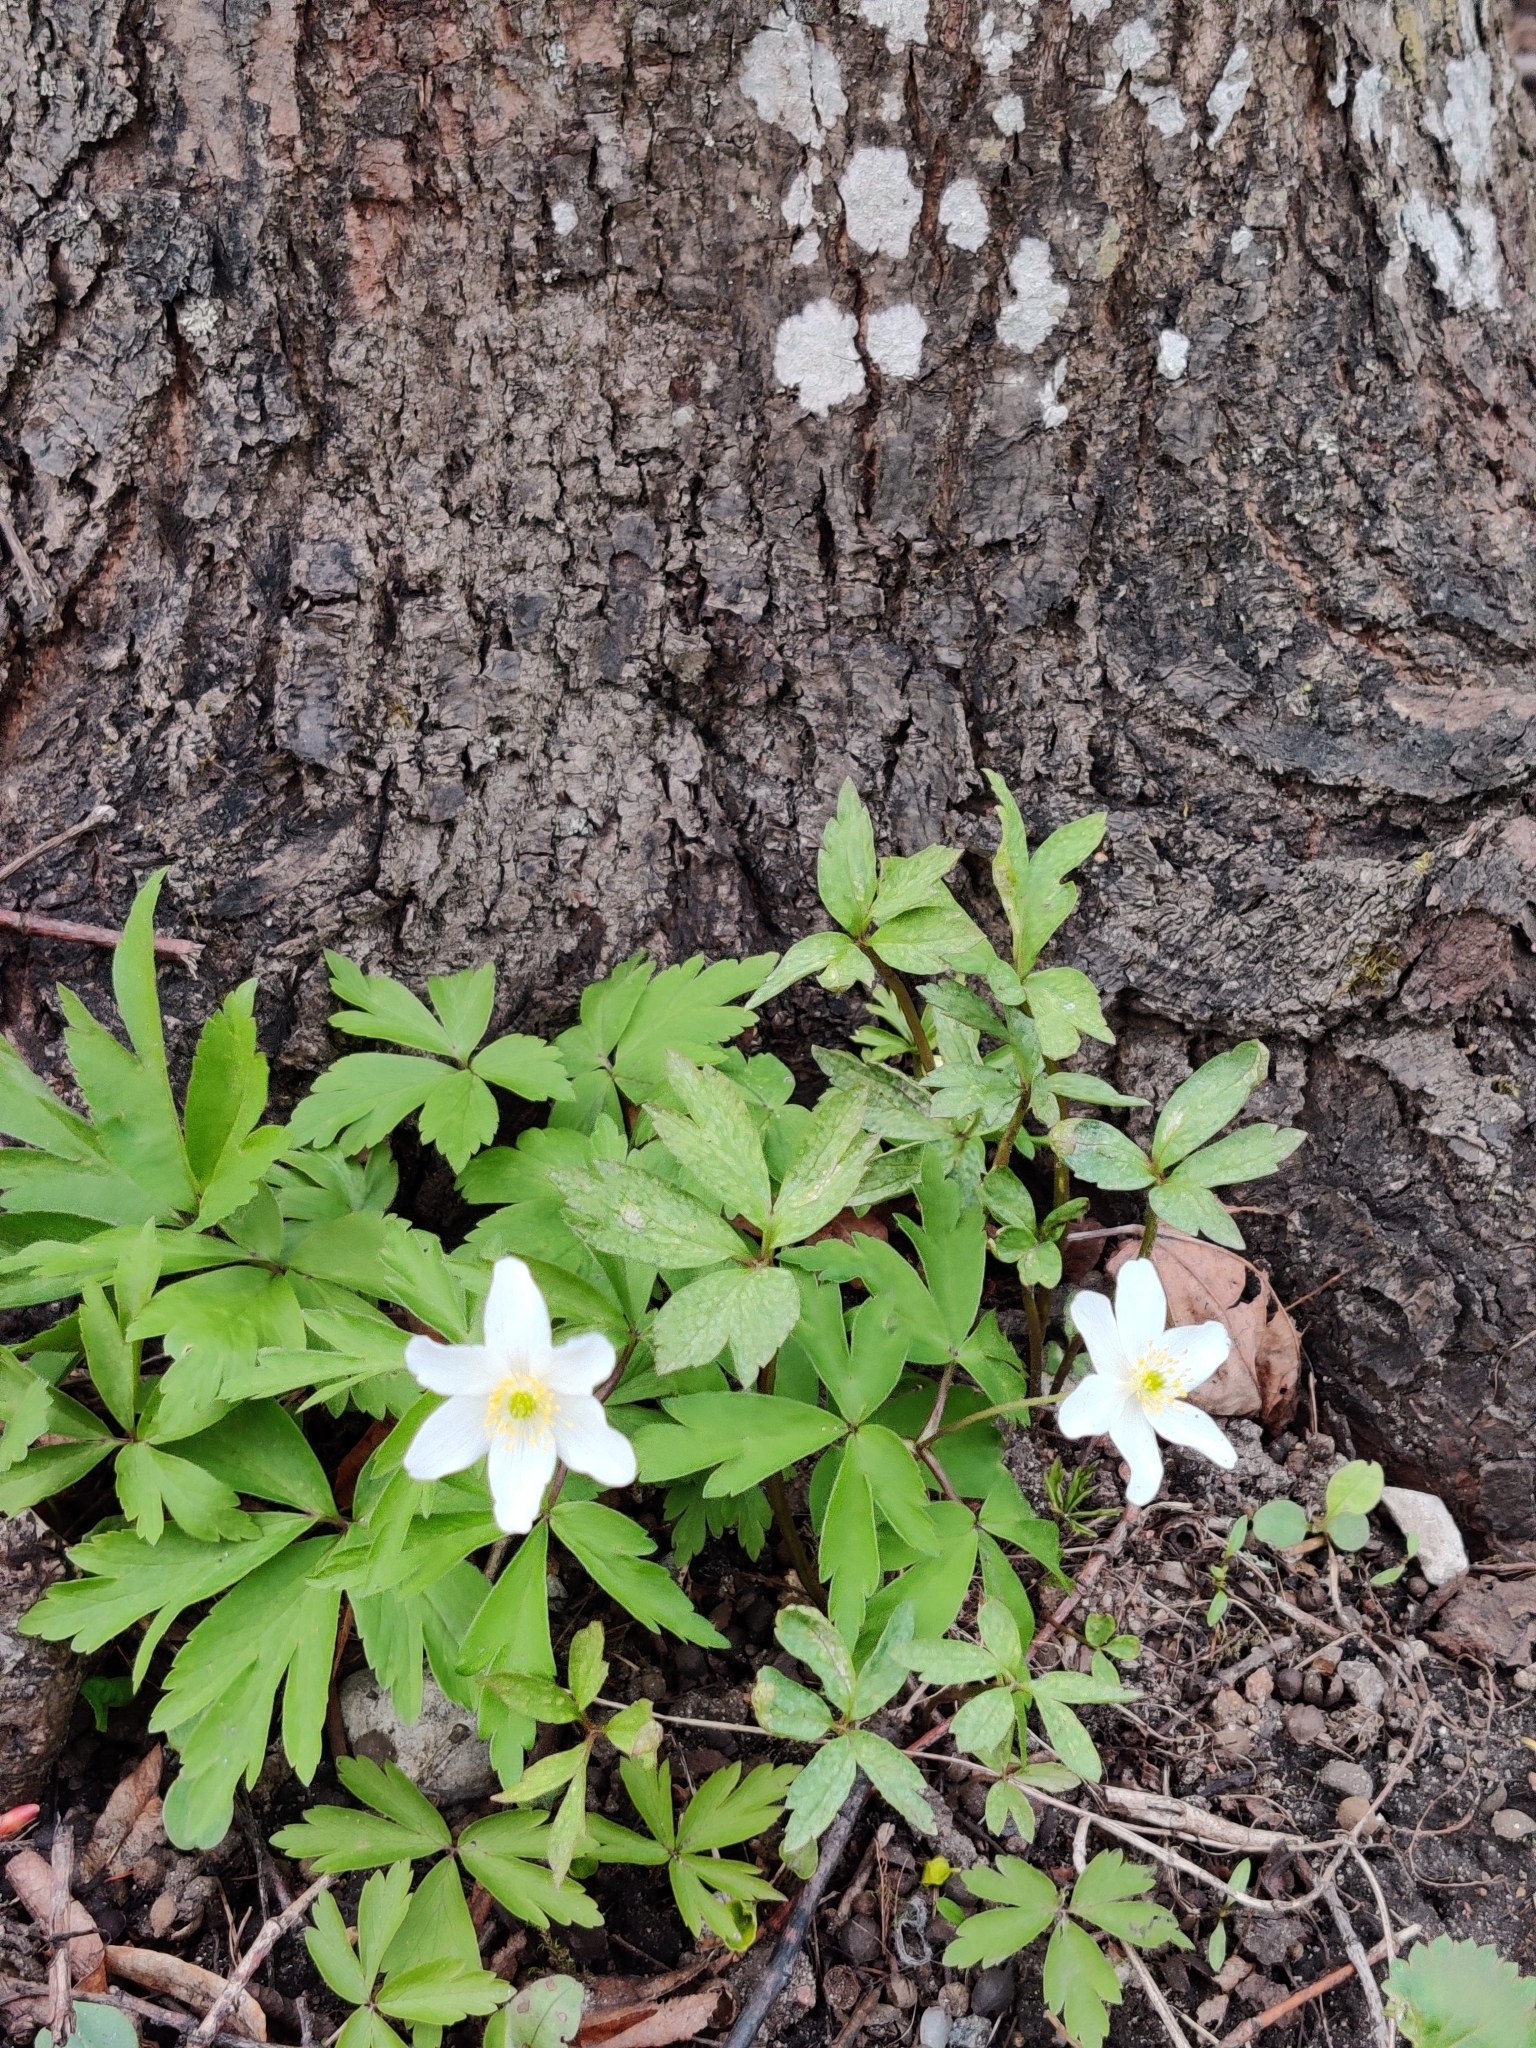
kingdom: Plantae
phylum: Tracheophyta
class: Magnoliopsida
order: Ranunculales
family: Ranunculaceae
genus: Anemone
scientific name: Anemone nemorosa
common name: Wood anemone
